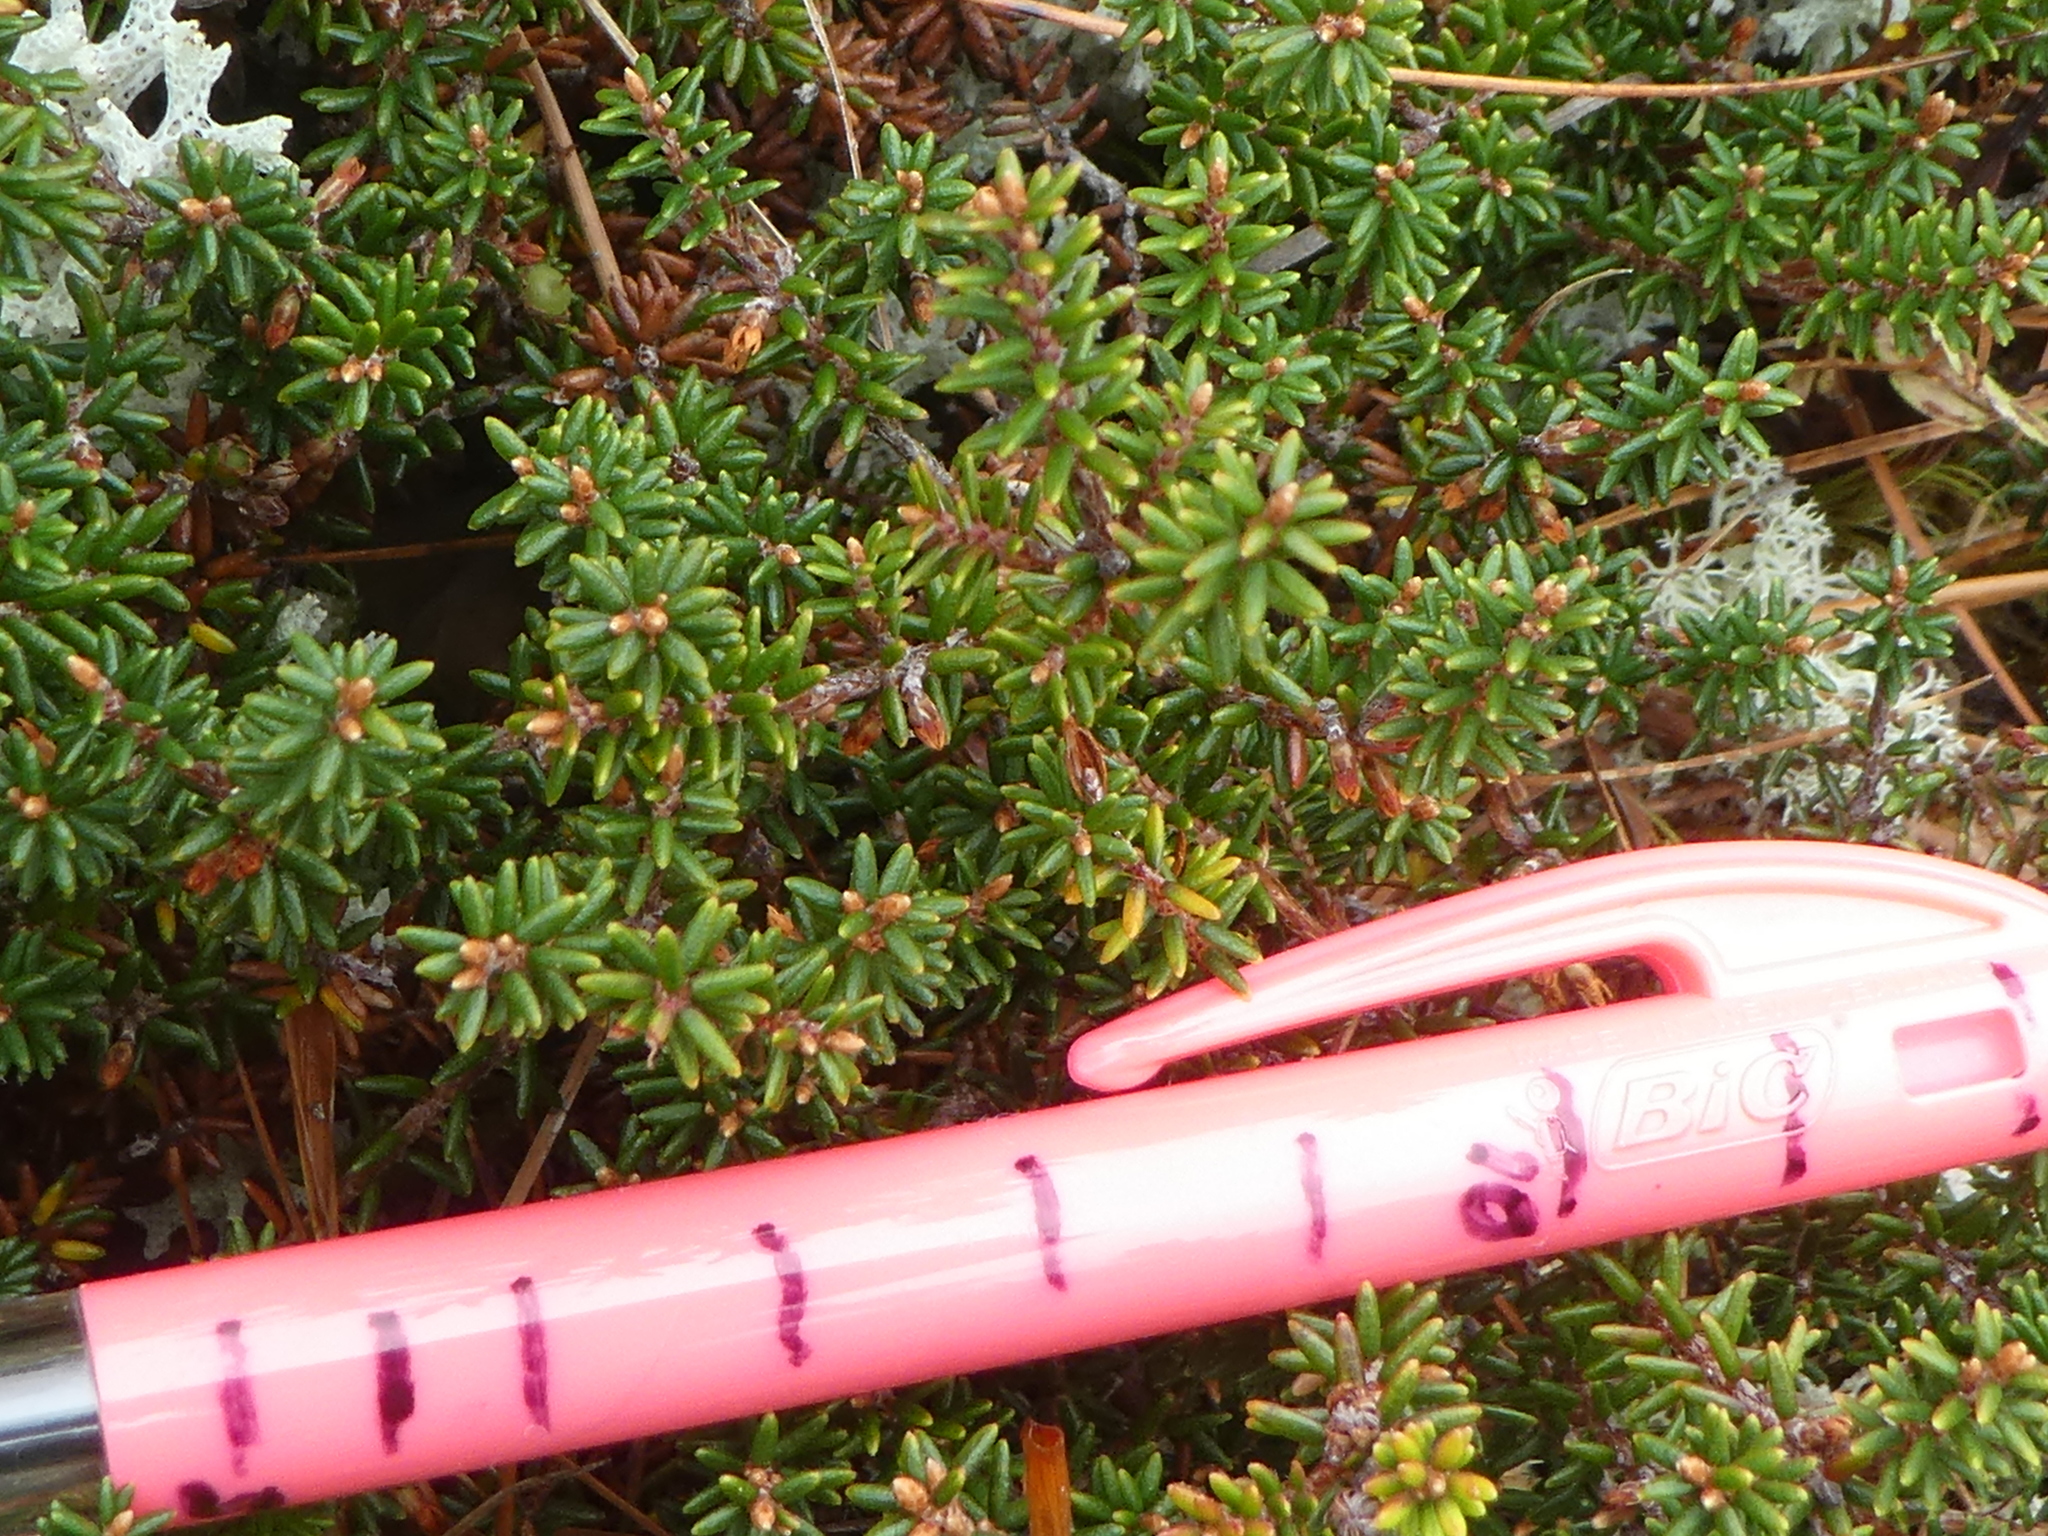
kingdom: Plantae
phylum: Tracheophyta
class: Magnoliopsida
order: Ericales
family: Ericaceae
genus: Androstoma
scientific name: Androstoma empetrifolia
